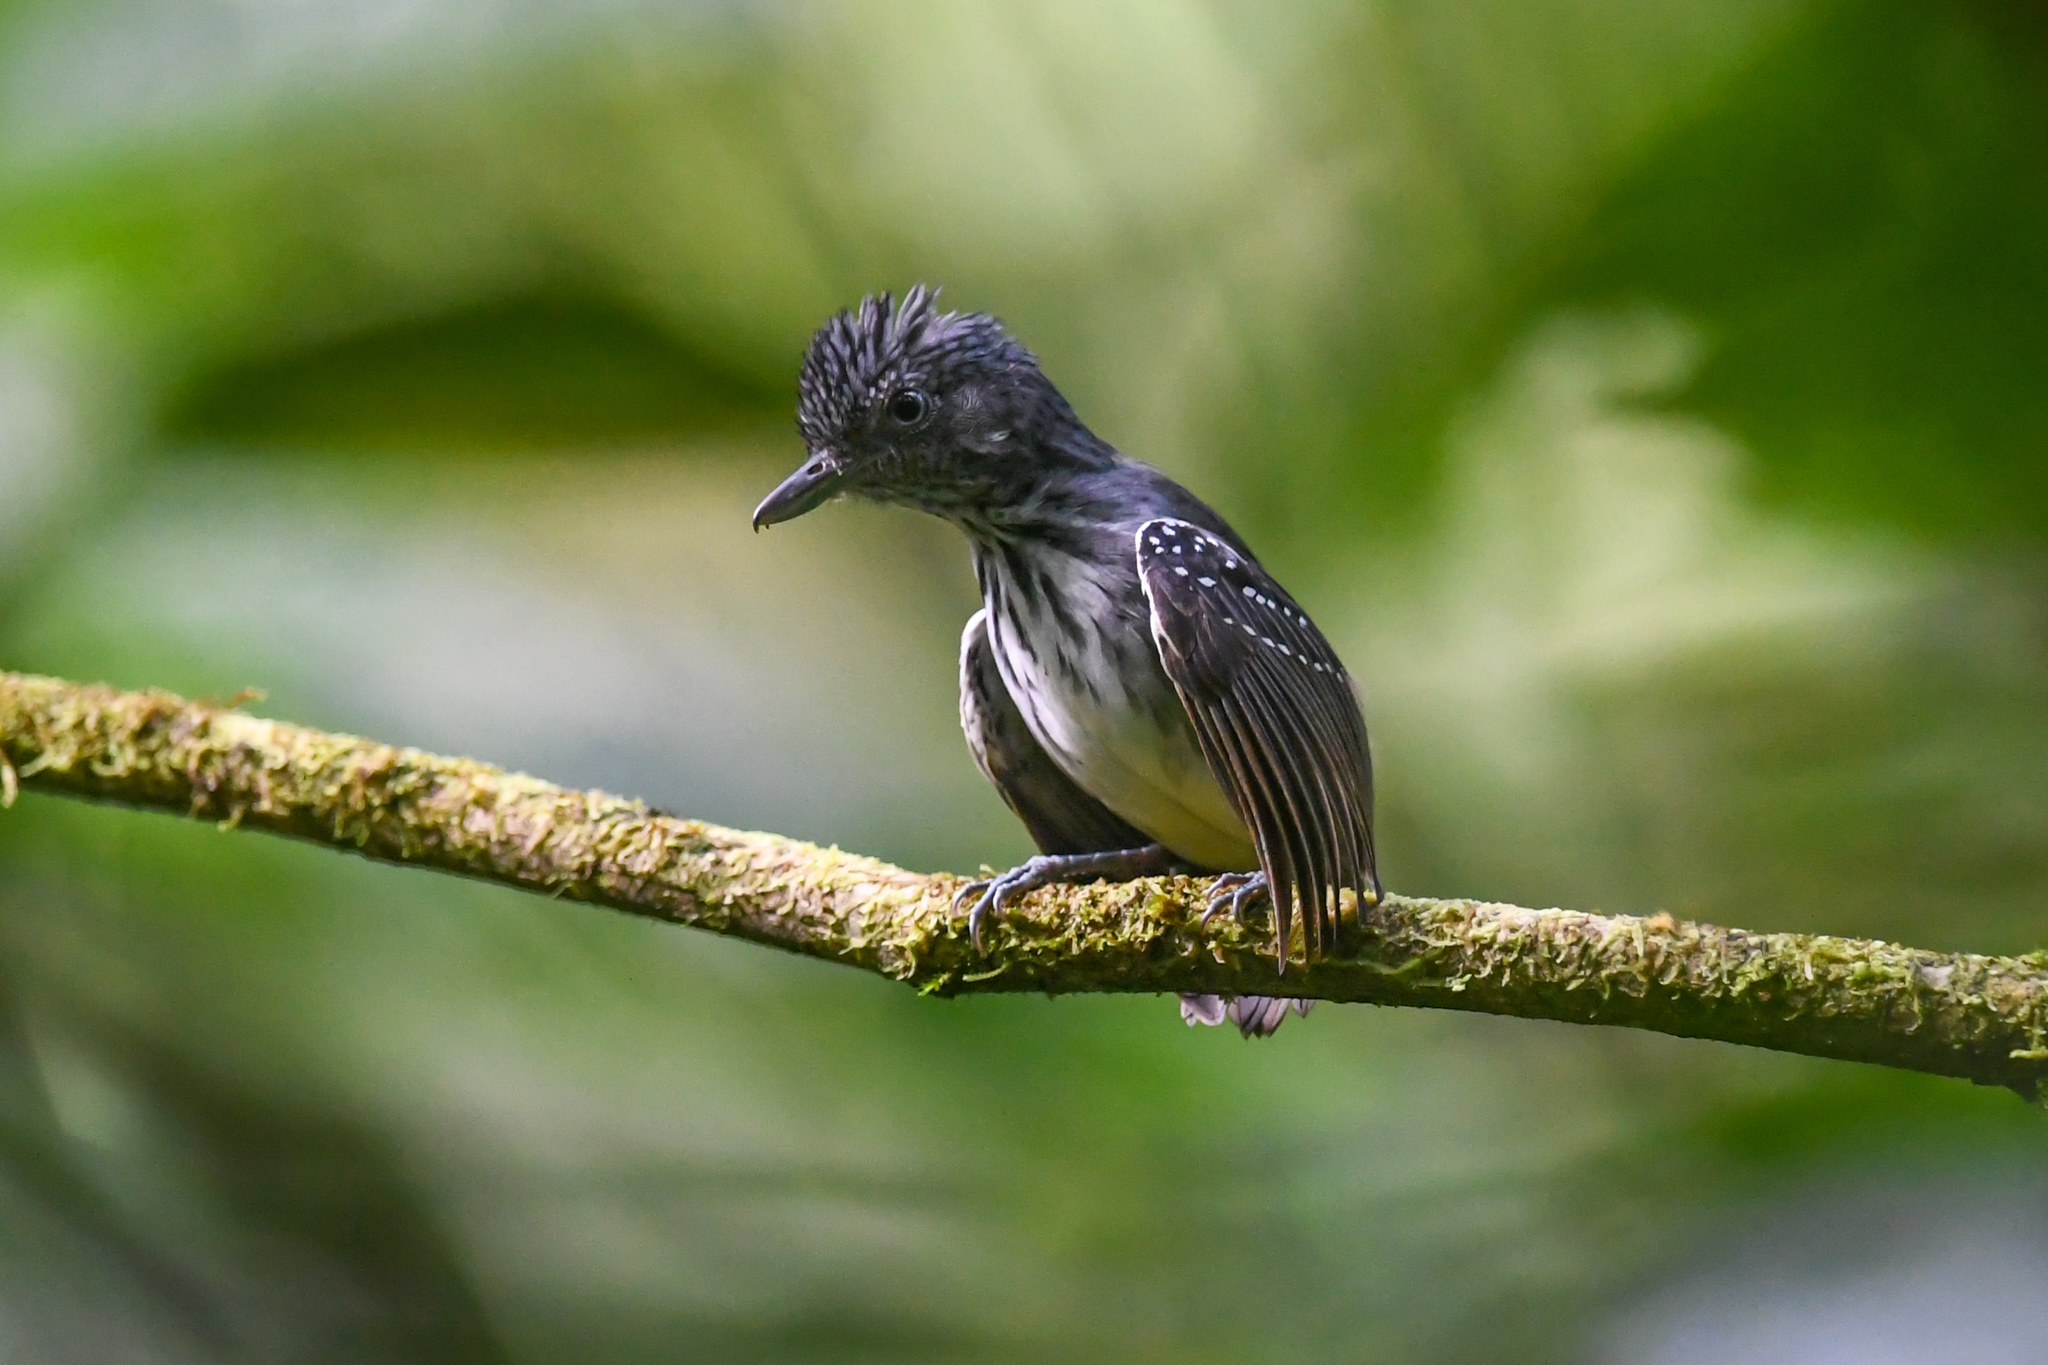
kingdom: Animalia
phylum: Chordata
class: Aves
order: Passeriformes
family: Thamnophilidae
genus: Dysithamnus
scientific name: Dysithamnus striaticeps
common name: Streak-crowned antvireo
